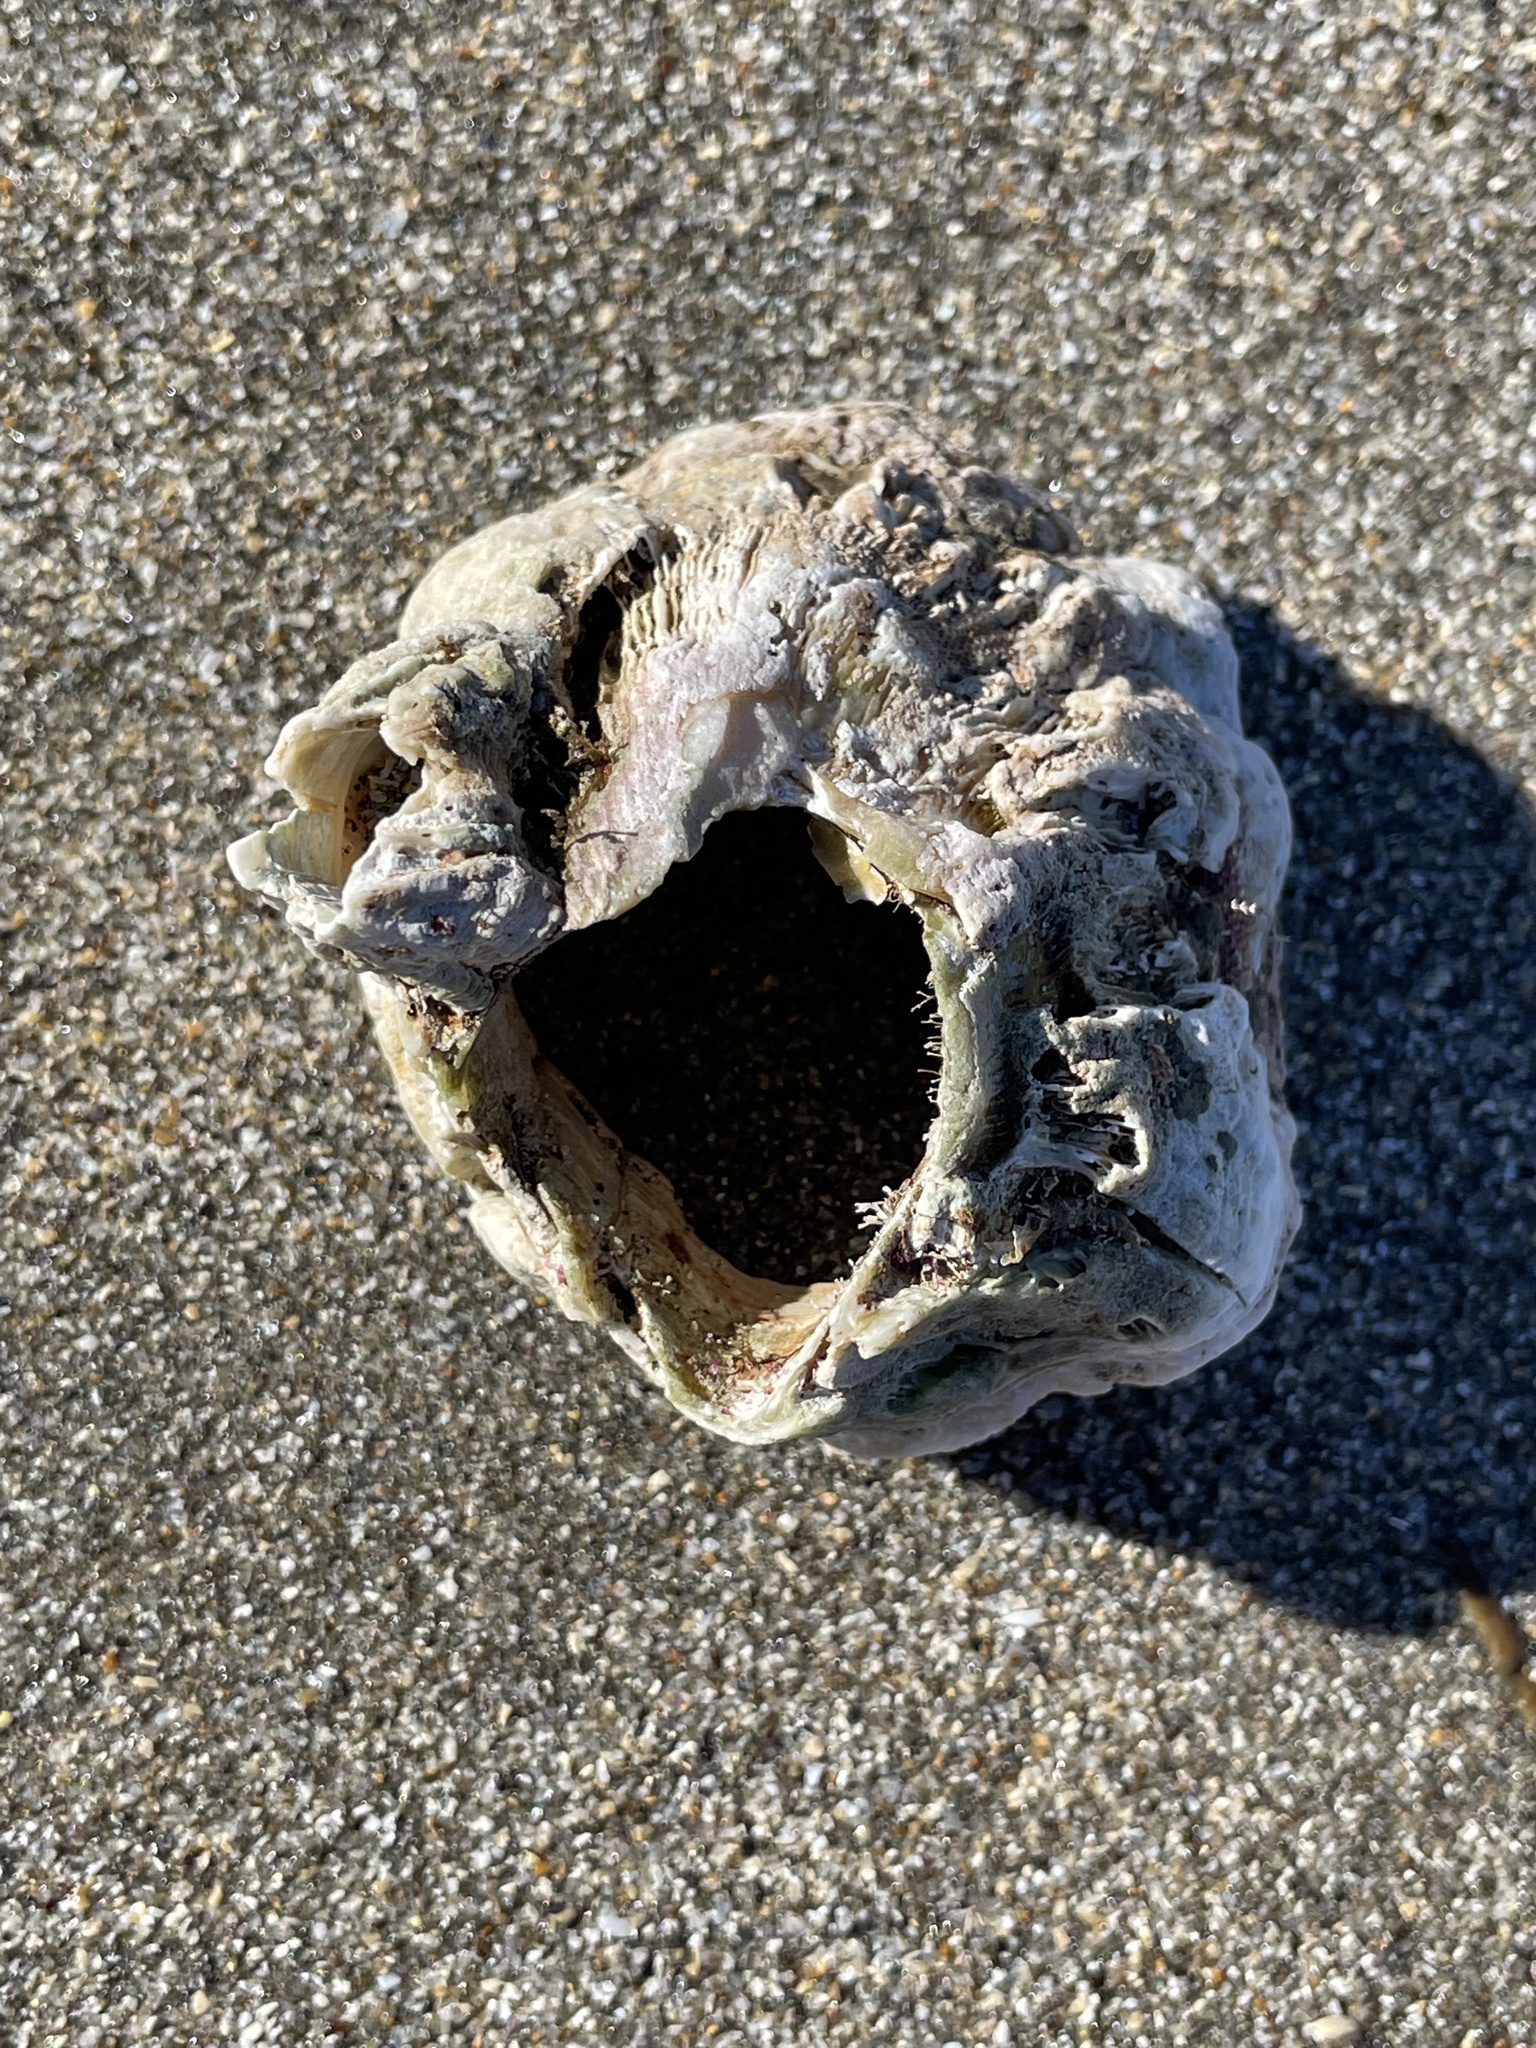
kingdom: Animalia
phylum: Arthropoda
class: Maxillopoda
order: Sessilia
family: Balanidae
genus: Balanus
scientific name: Balanus nubilus
